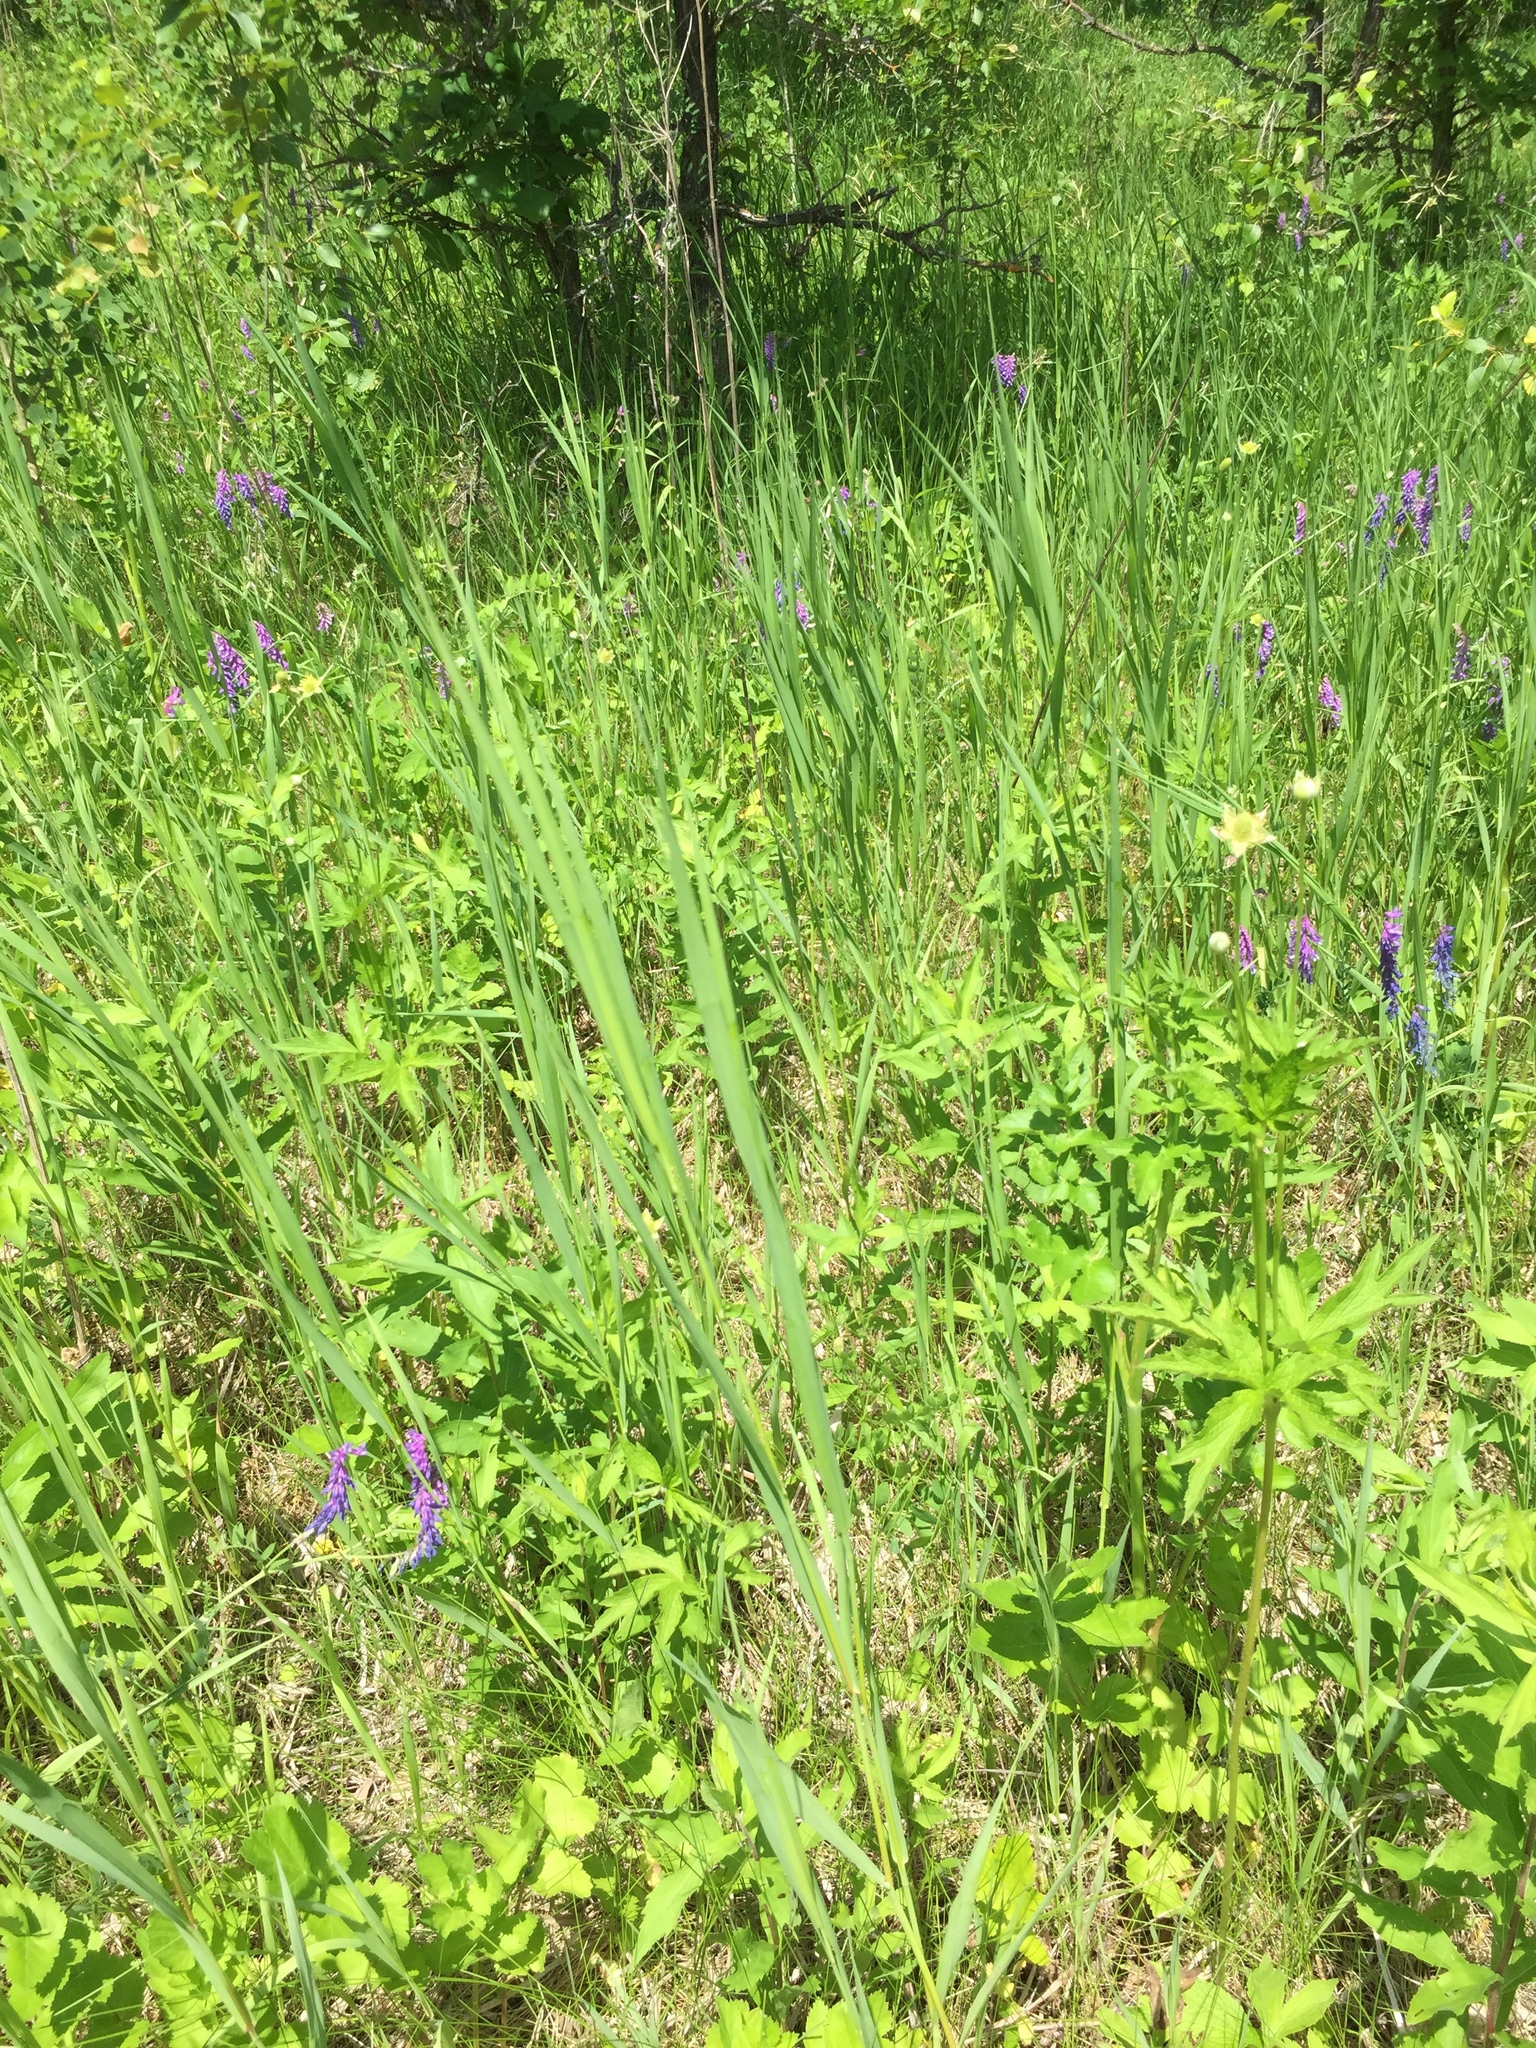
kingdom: Plantae
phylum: Tracheophyta
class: Magnoliopsida
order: Ranunculales
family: Ranunculaceae
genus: Anemone
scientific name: Anemone cylindrica
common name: Candle anemone
